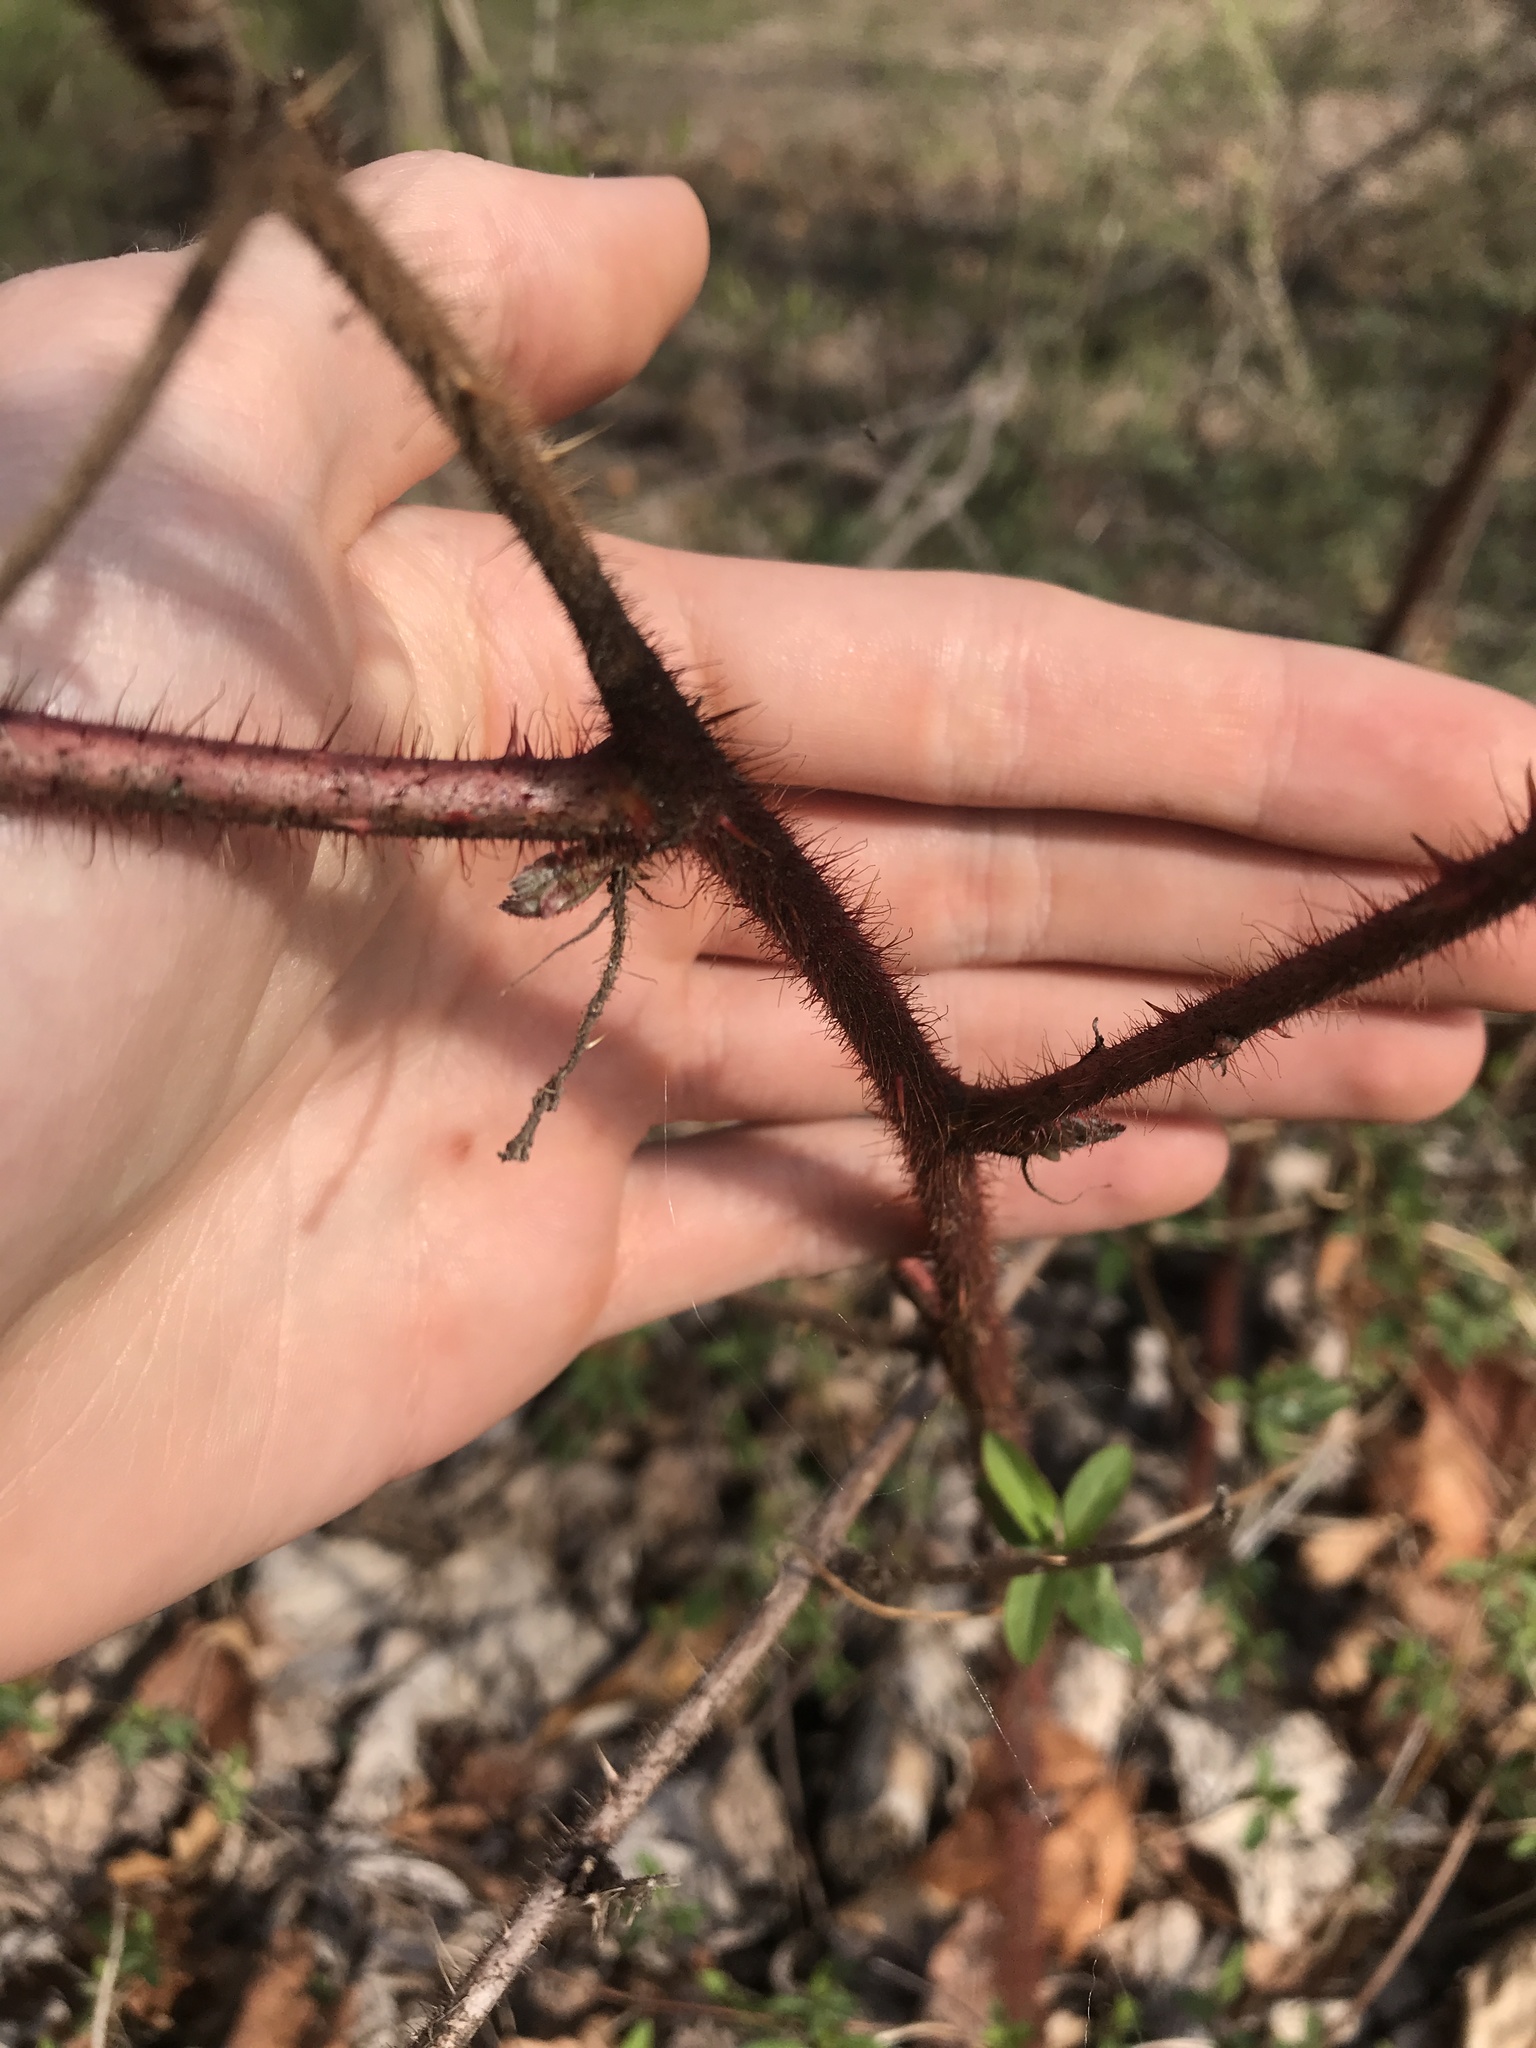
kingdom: Plantae
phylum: Tracheophyta
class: Magnoliopsida
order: Rosales
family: Rosaceae
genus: Rubus
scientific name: Rubus phoenicolasius
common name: Japanese wineberry
